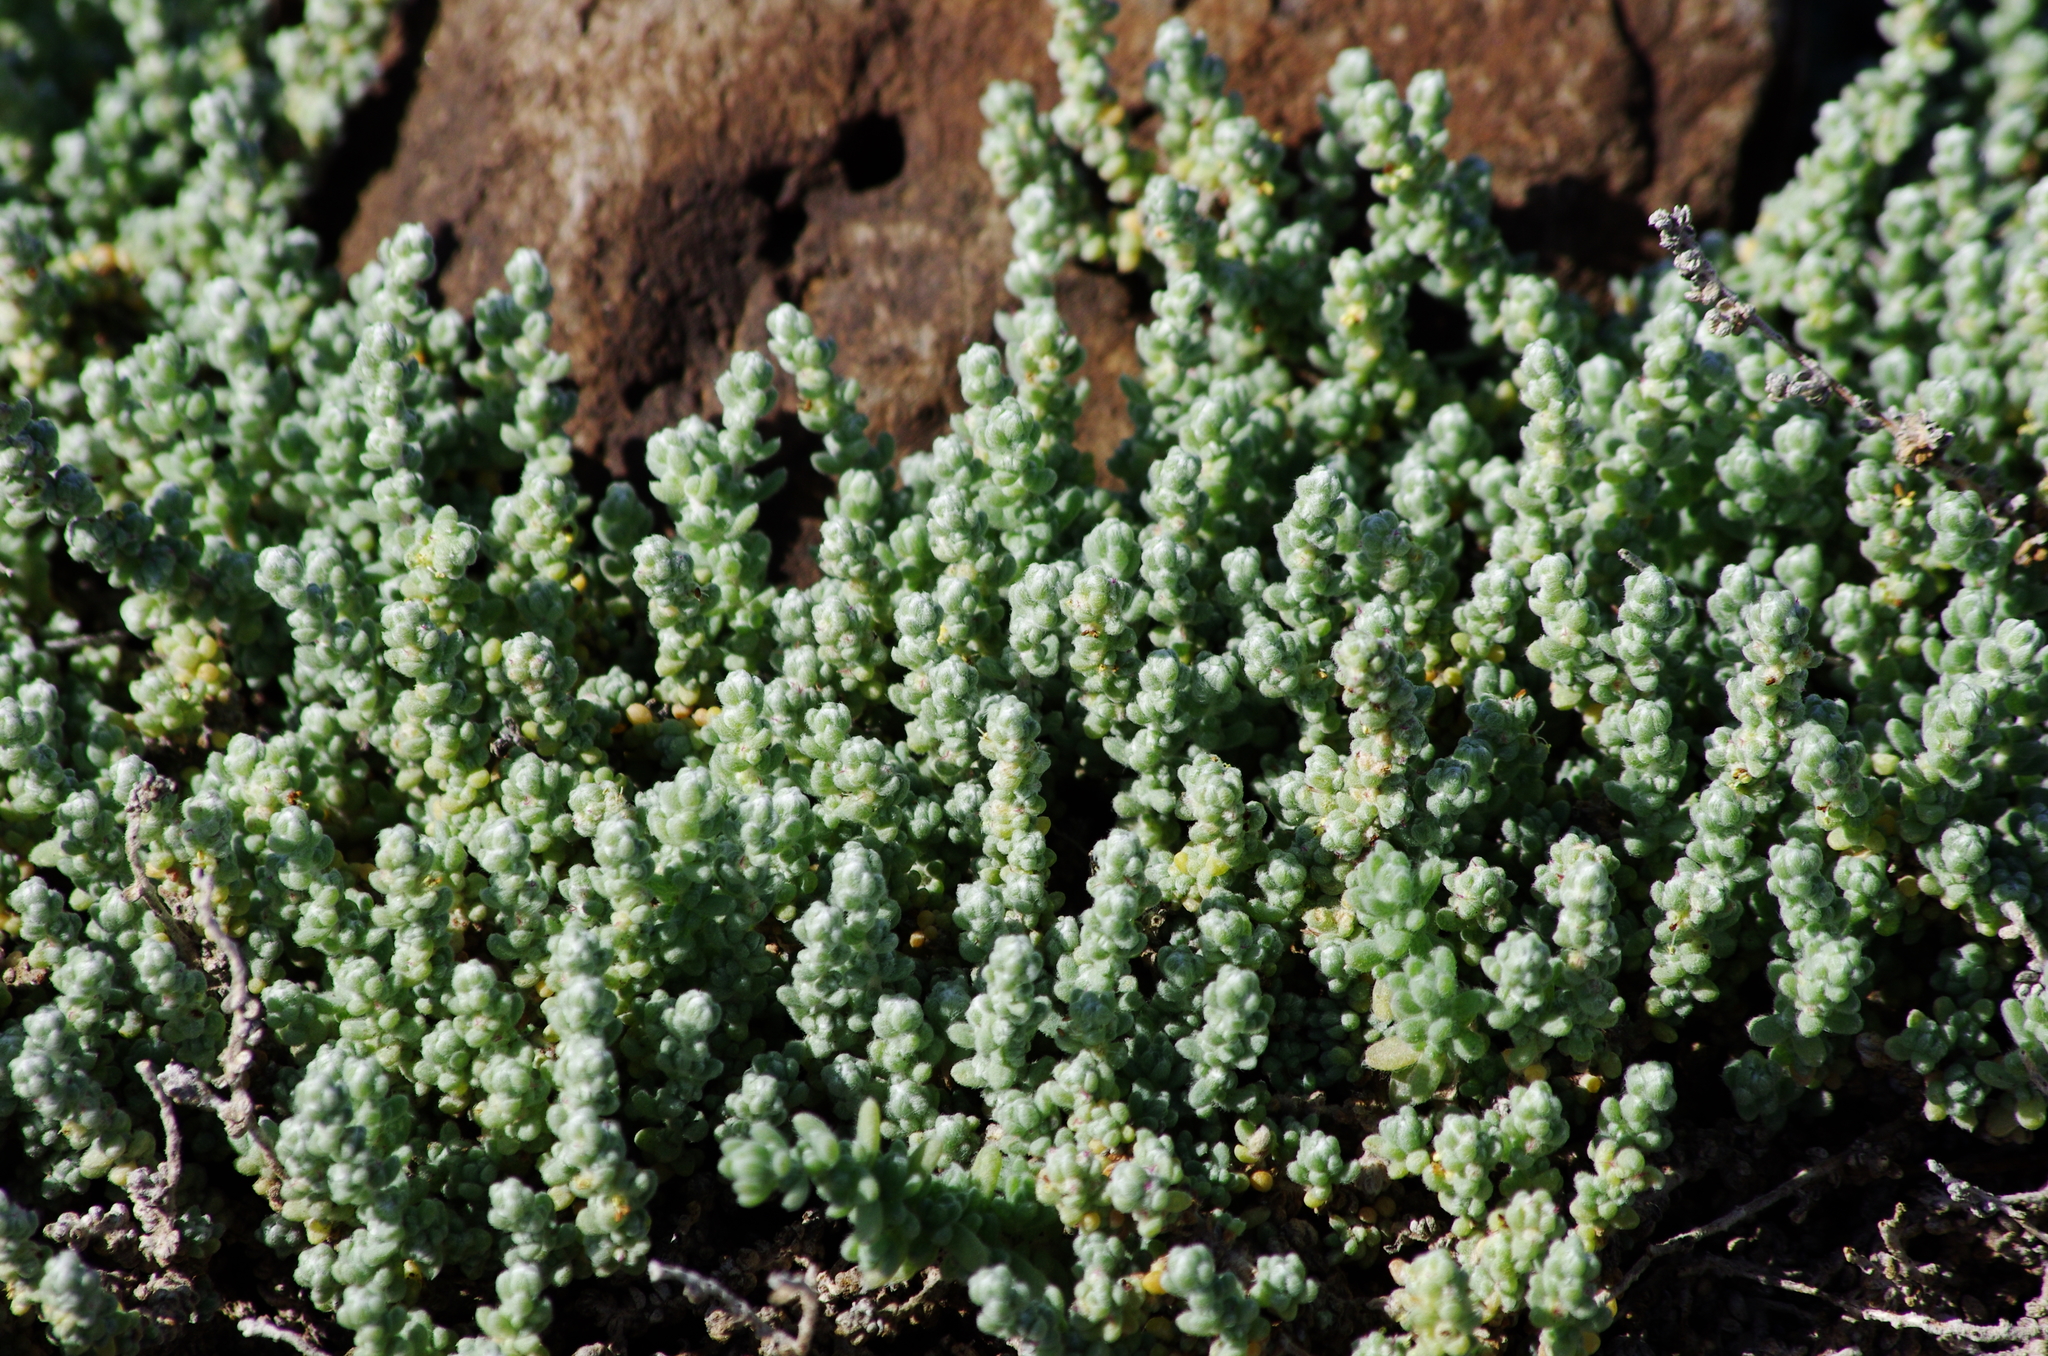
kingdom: Plantae
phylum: Tracheophyta
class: Magnoliopsida
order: Caryophyllales
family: Amaranthaceae
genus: Bassia
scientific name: Bassia tomentosa
